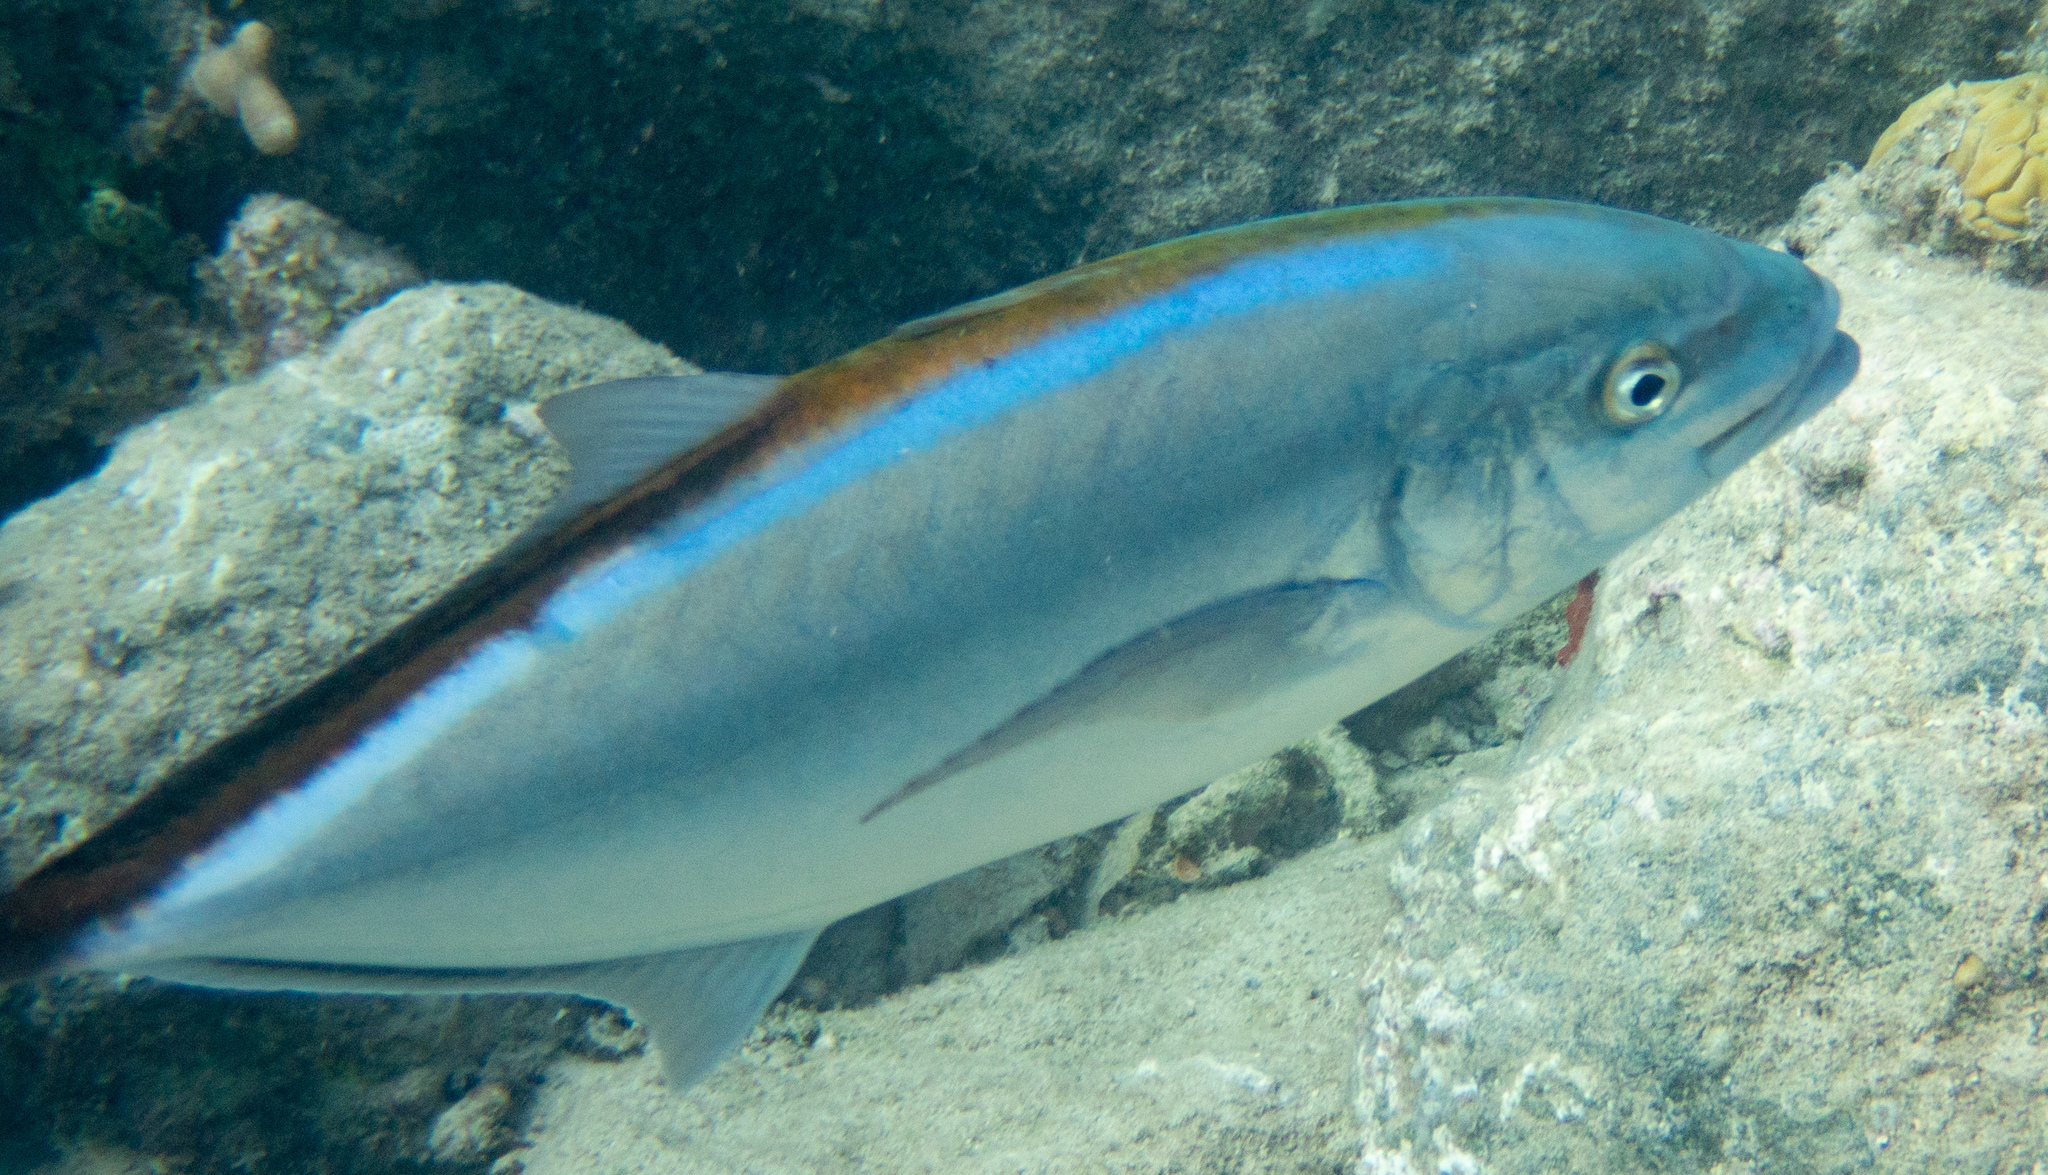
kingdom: Animalia
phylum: Chordata
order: Perciformes
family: Carangidae
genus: Caranx
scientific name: Caranx ruber
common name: Bar jack
